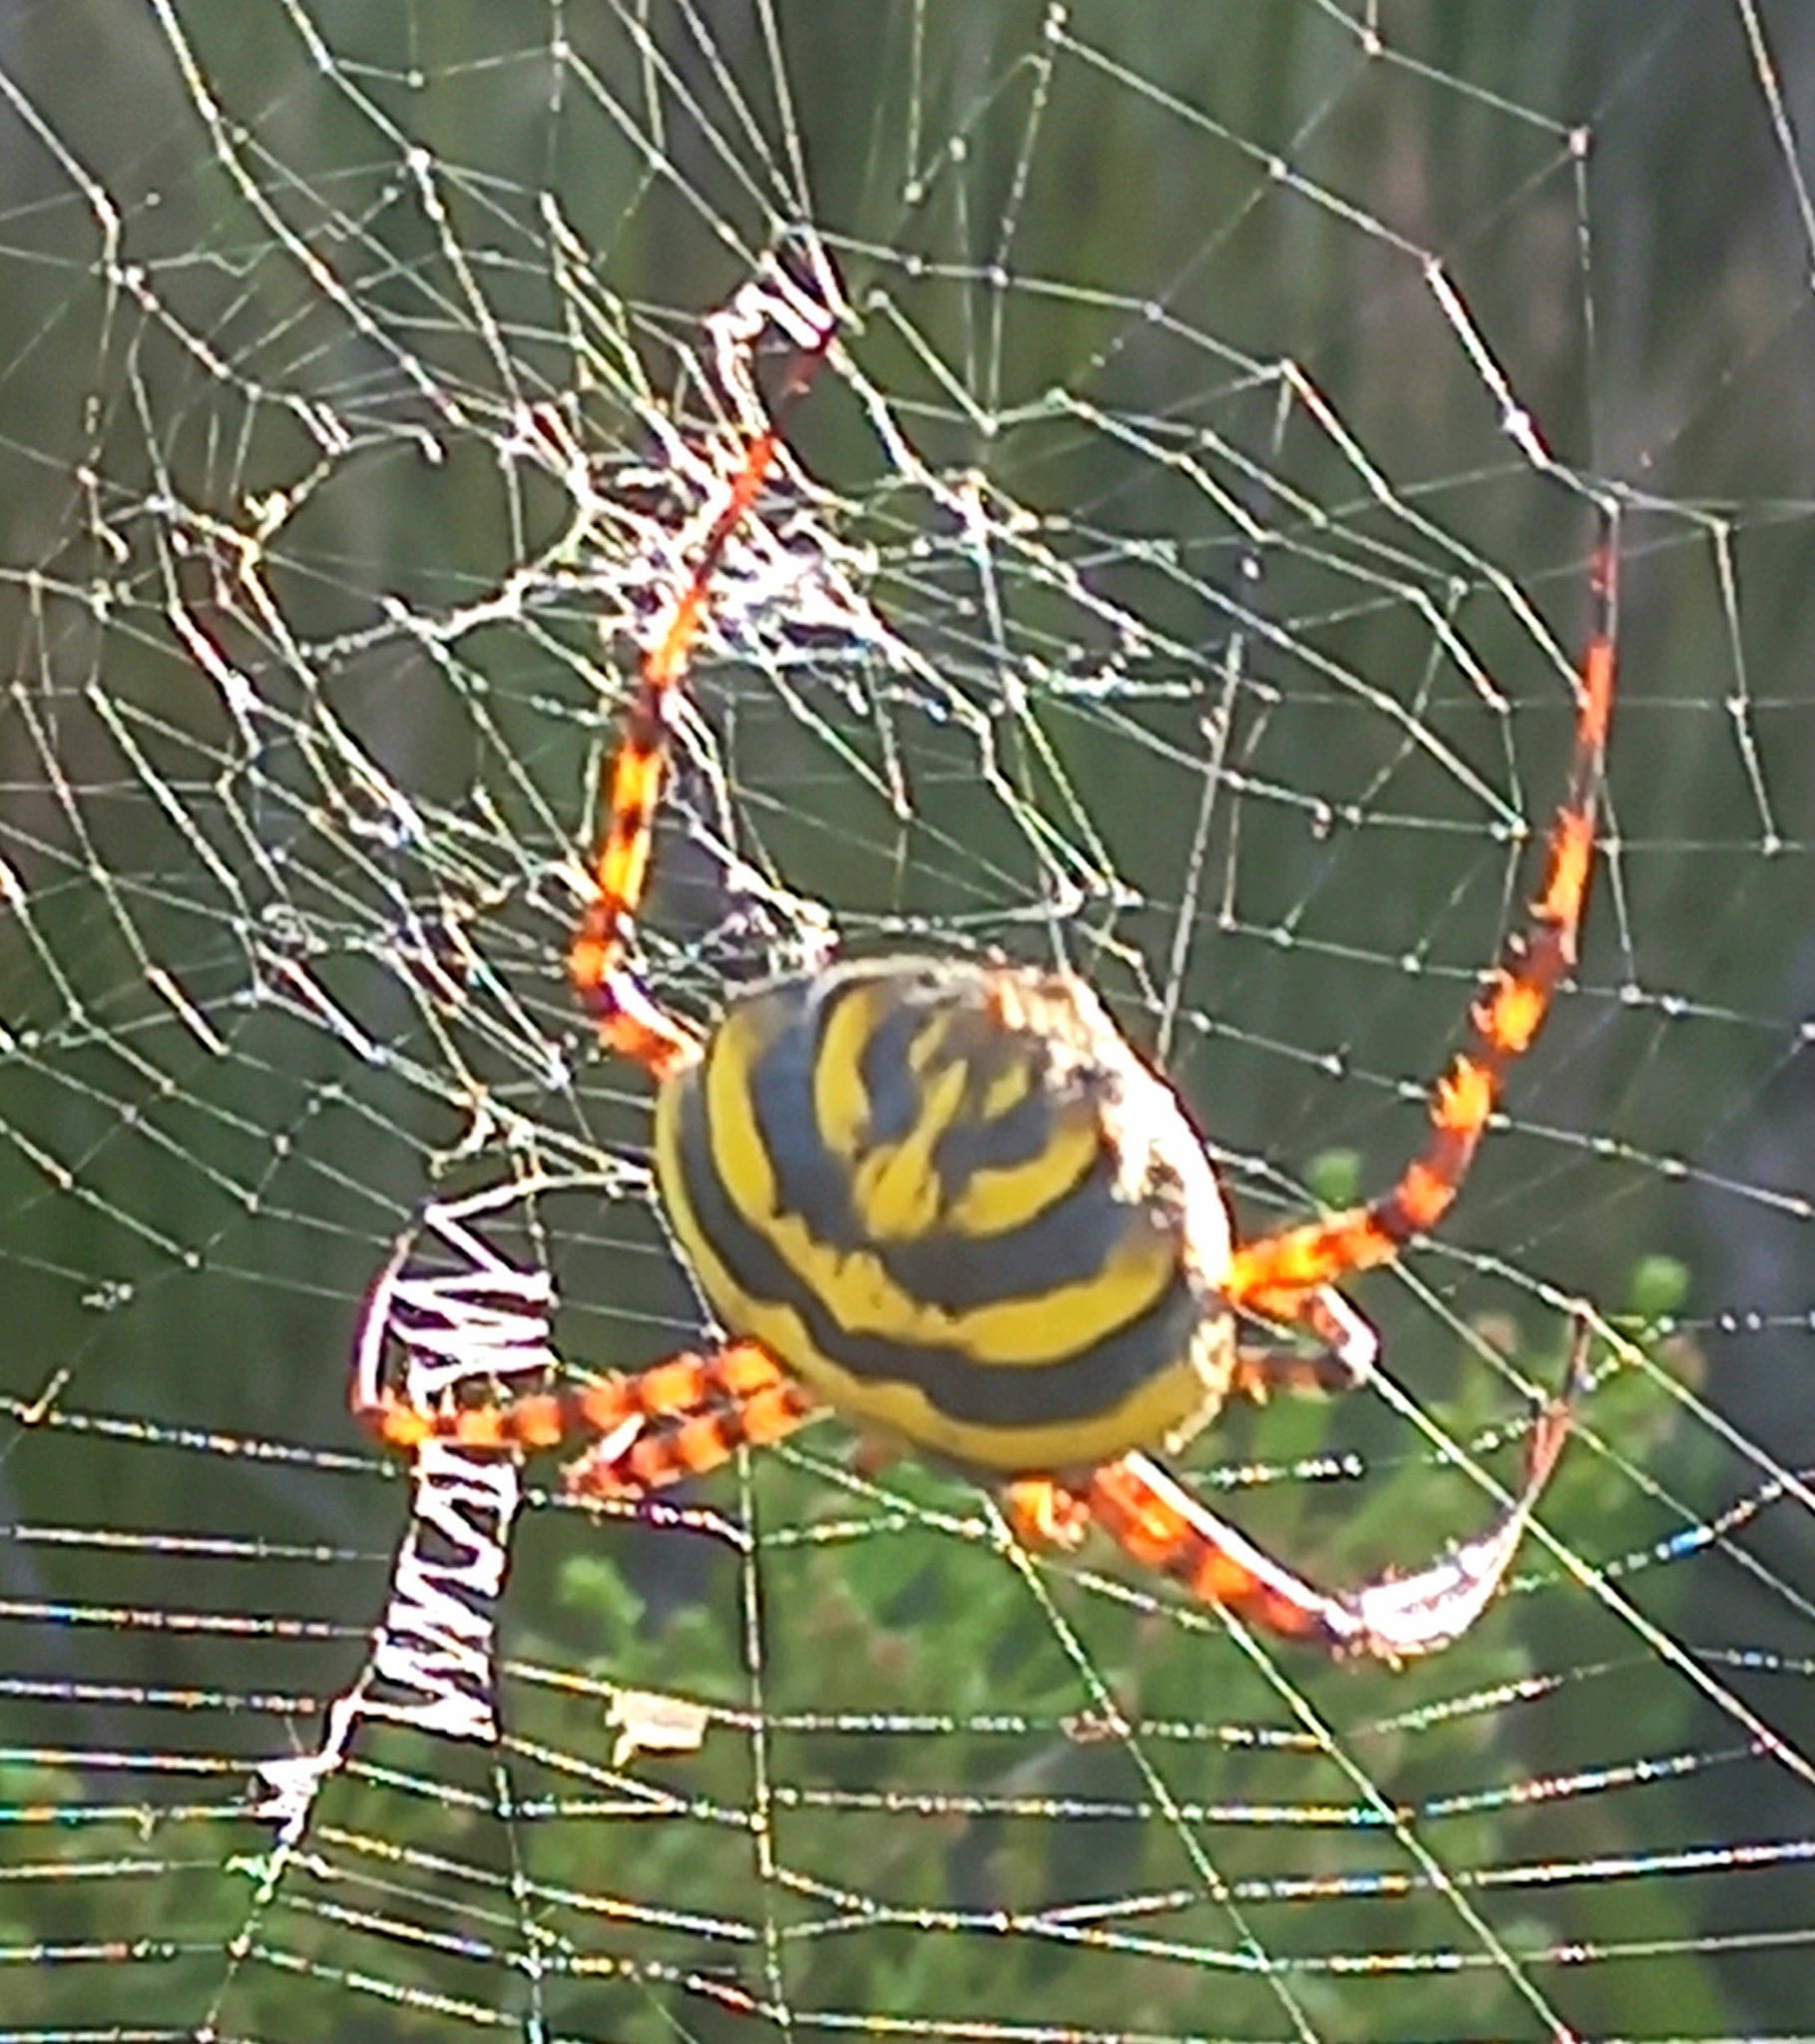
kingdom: Animalia
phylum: Arthropoda
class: Arachnida
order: Araneae
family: Araneidae
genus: Argiope
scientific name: Argiope australis
